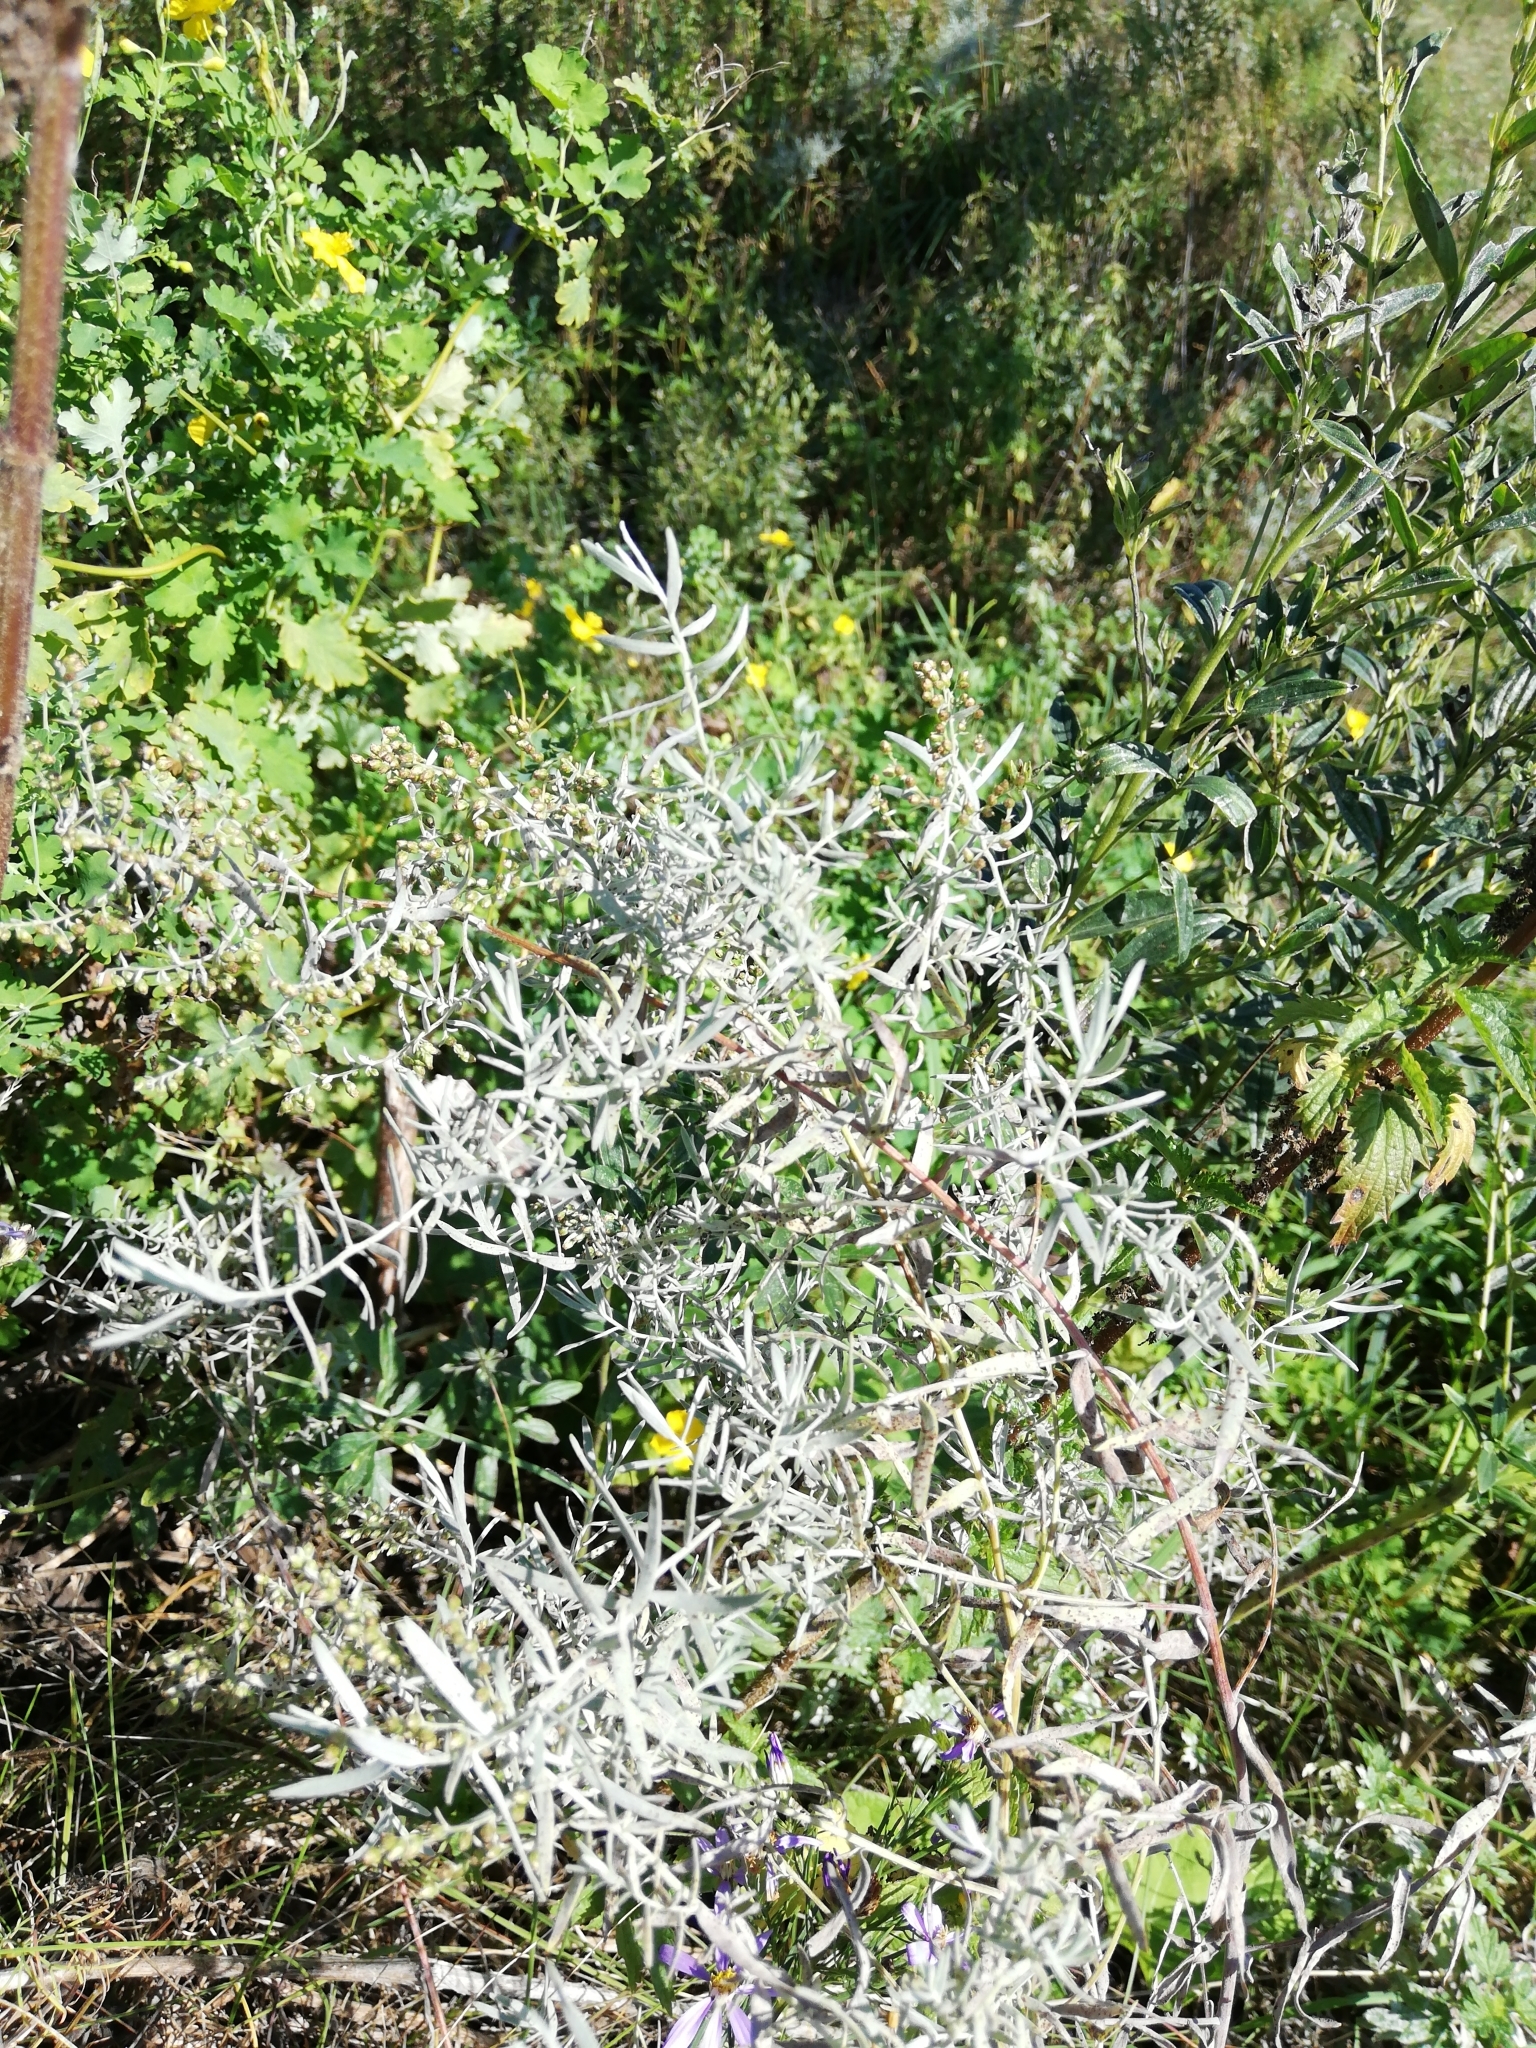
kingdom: Plantae
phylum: Tracheophyta
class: Magnoliopsida
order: Asterales
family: Asteraceae
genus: Artemisia
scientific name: Artemisia glauca
